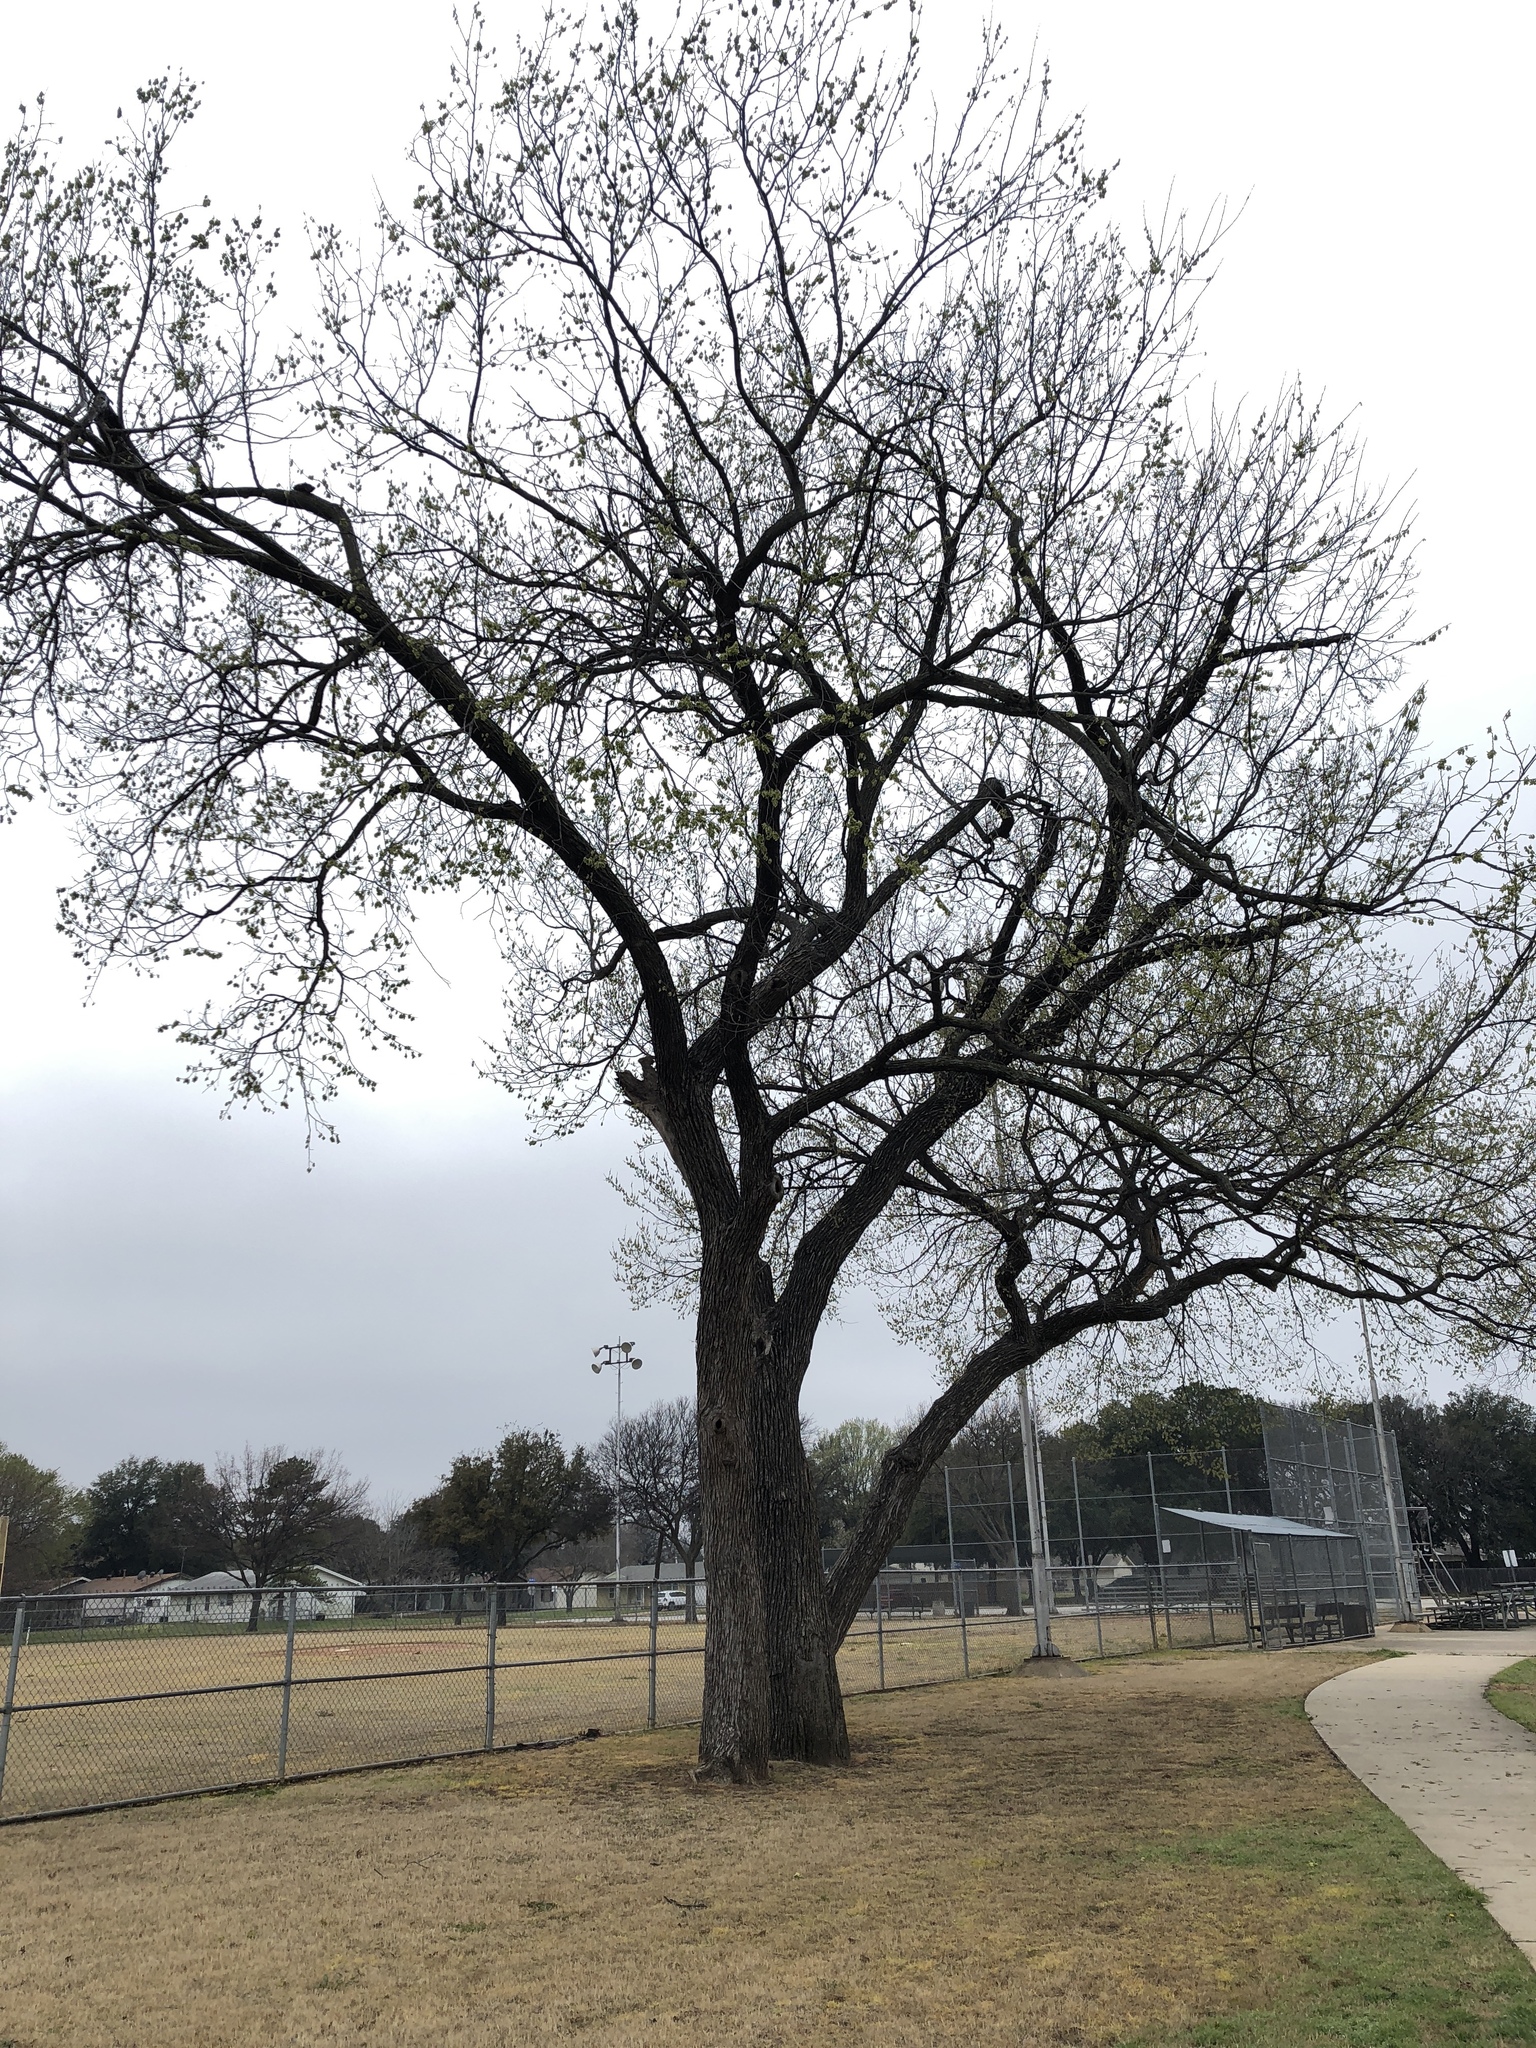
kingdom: Plantae
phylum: Tracheophyta
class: Magnoliopsida
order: Rosales
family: Ulmaceae
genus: Ulmus
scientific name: Ulmus americana
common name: American elm
